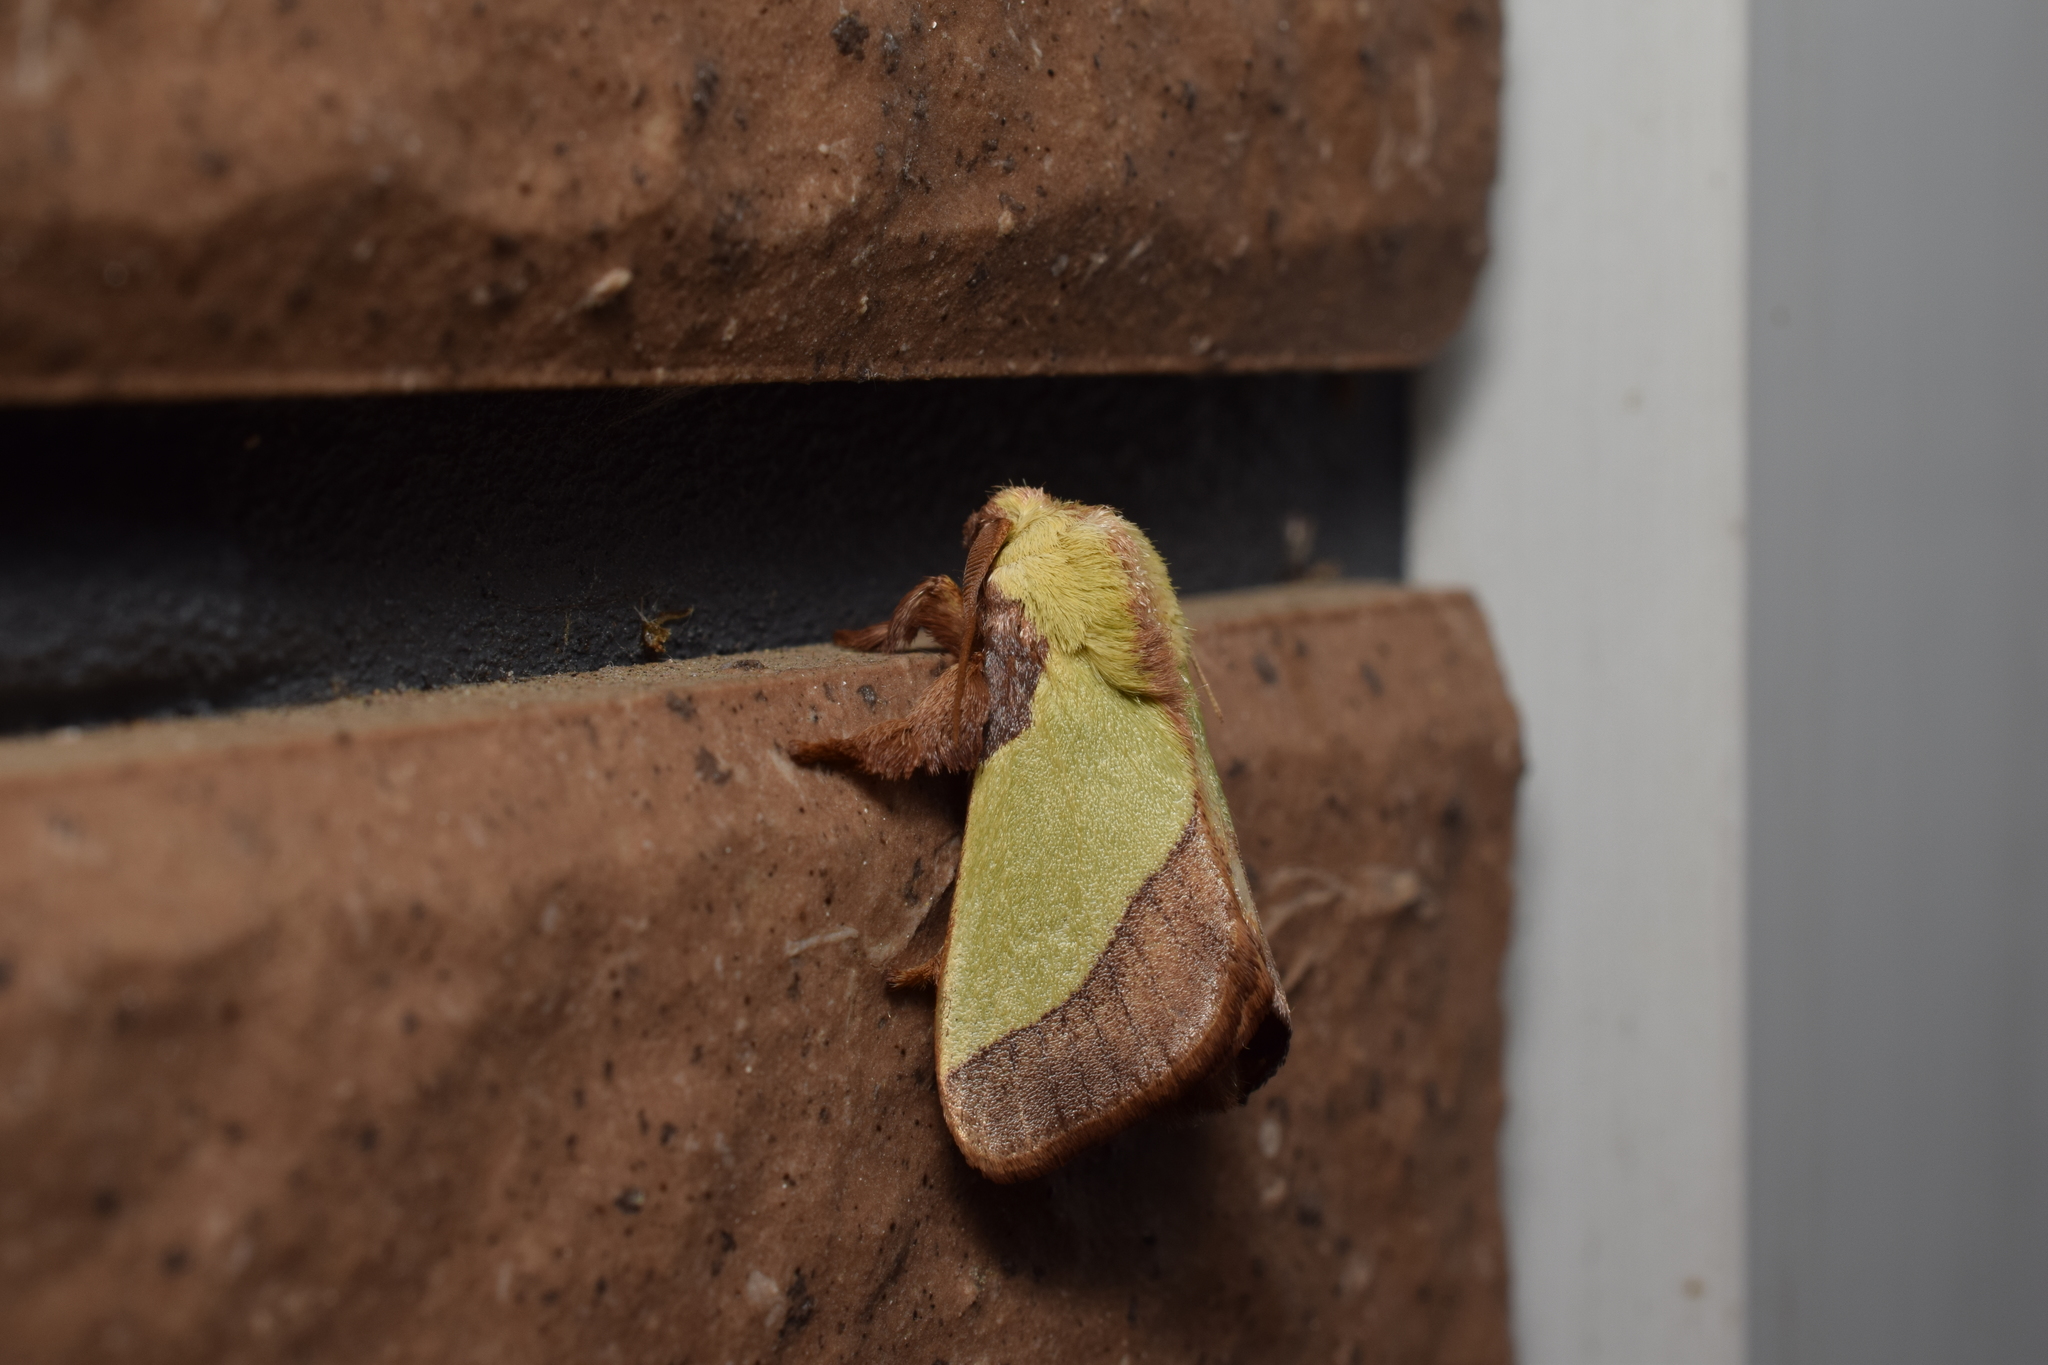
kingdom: Animalia
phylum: Arthropoda
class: Insecta
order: Lepidoptera
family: Limacodidae
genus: Parasa
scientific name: Parasa lepida
